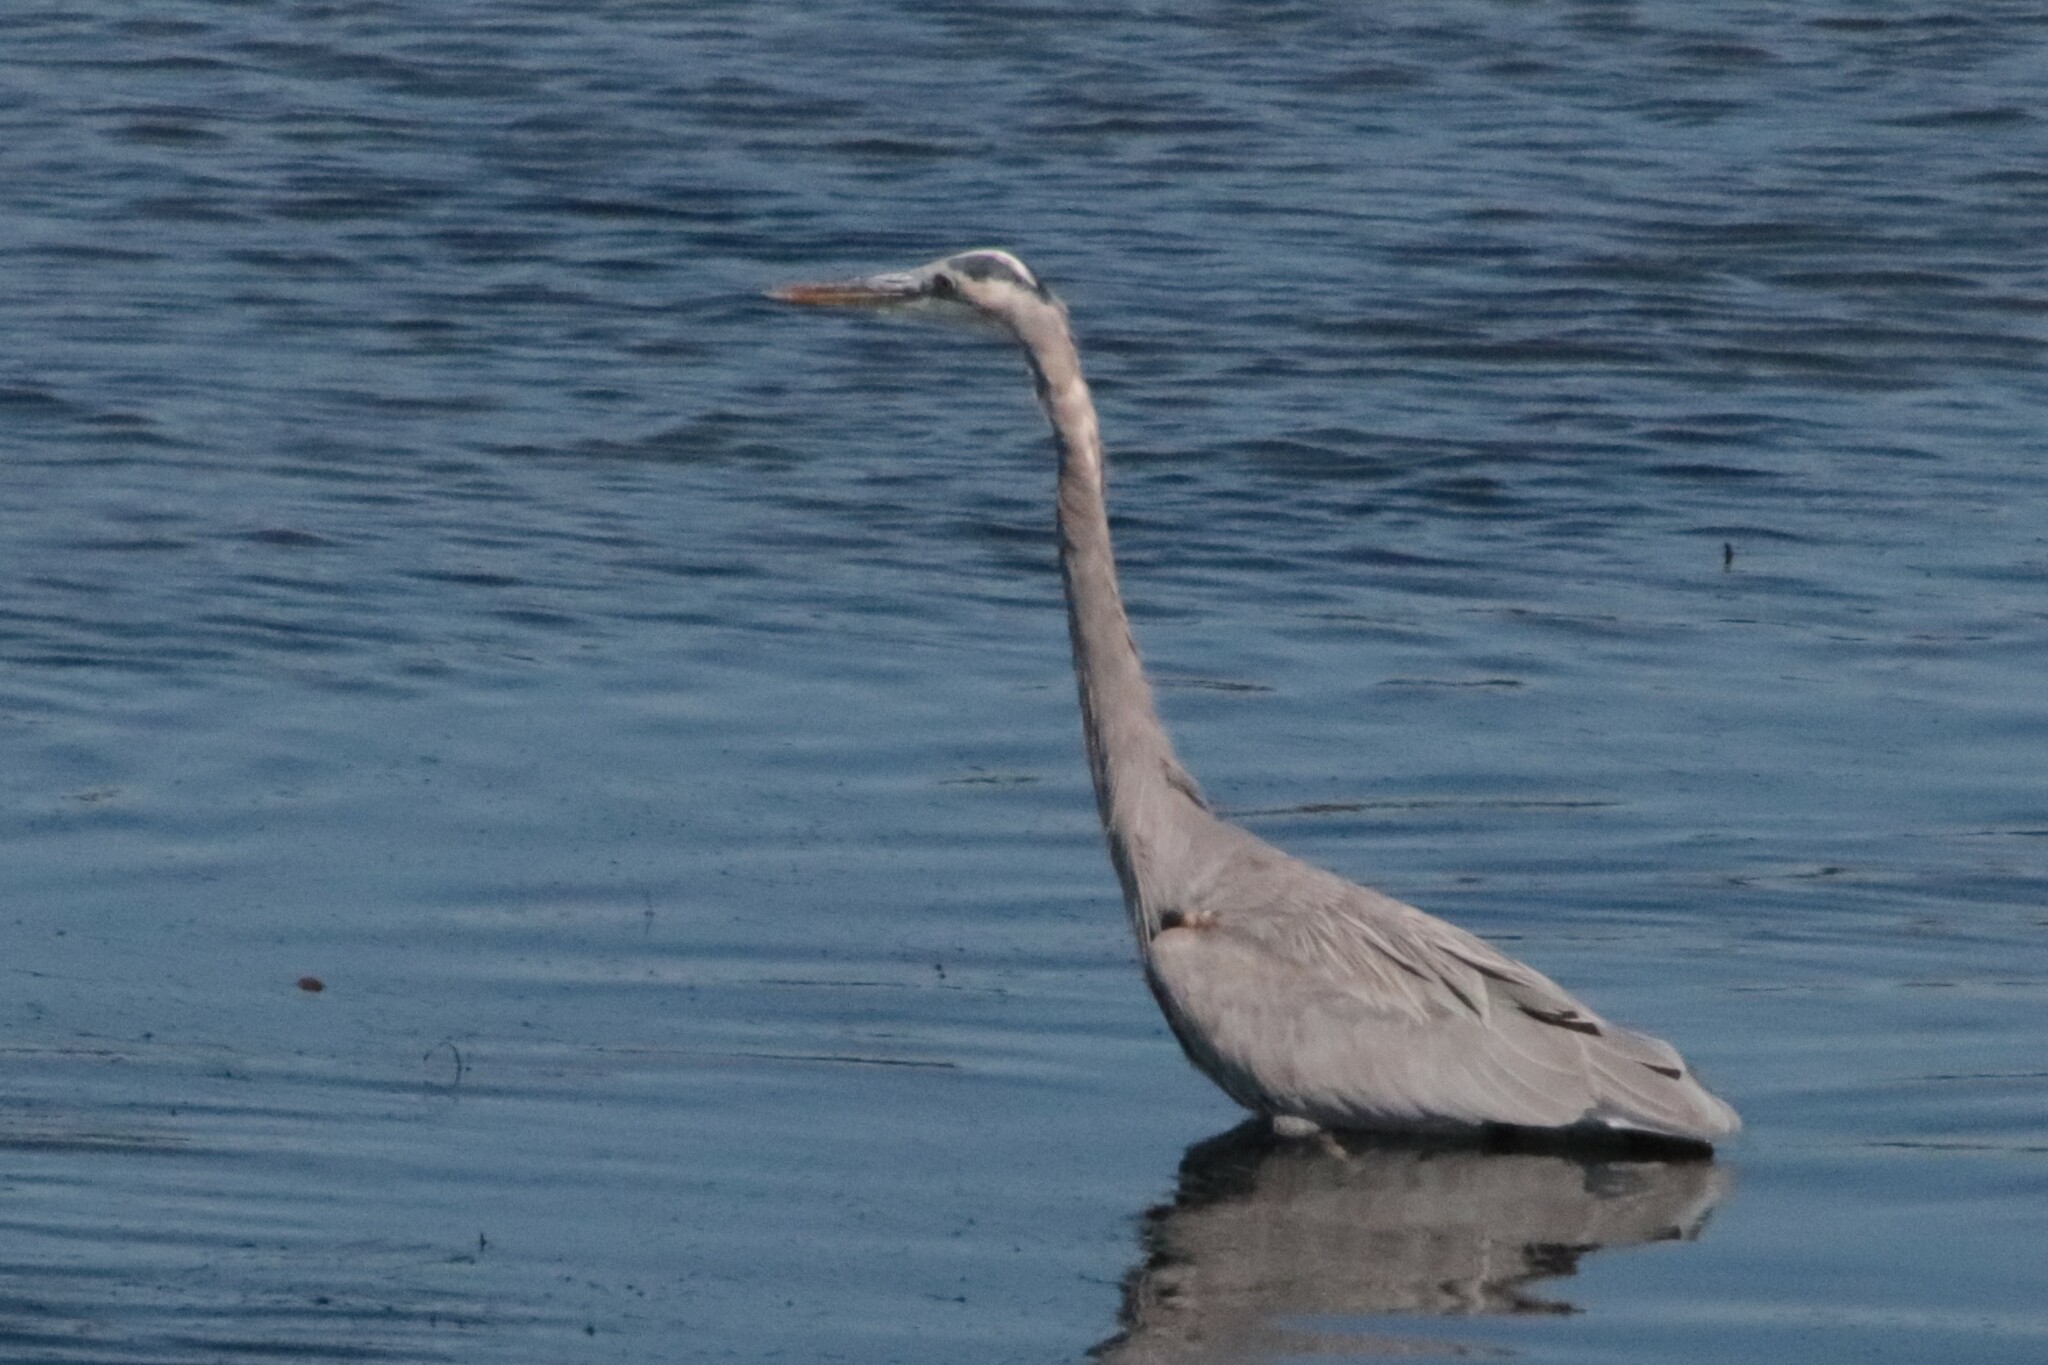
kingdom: Animalia
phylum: Chordata
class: Aves
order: Pelecaniformes
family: Ardeidae
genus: Ardea
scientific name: Ardea herodias
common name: Great blue heron
